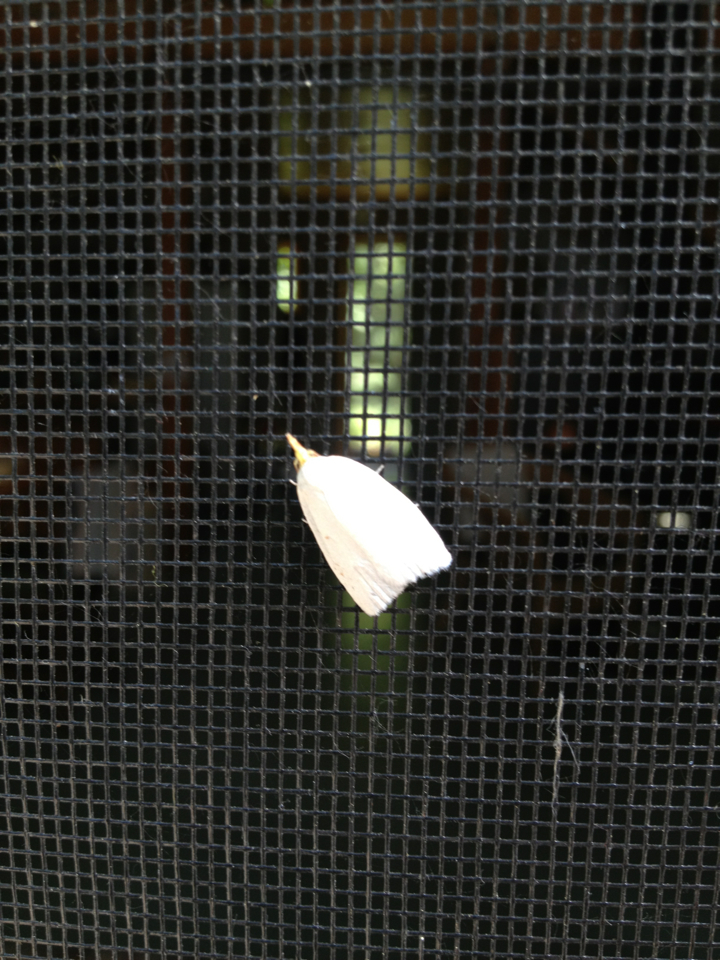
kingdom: Animalia
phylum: Arthropoda
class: Insecta
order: Lepidoptera
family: Tortricidae
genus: Cenopis
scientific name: Cenopis pettitana
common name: Maple-basswood leafroller moth
